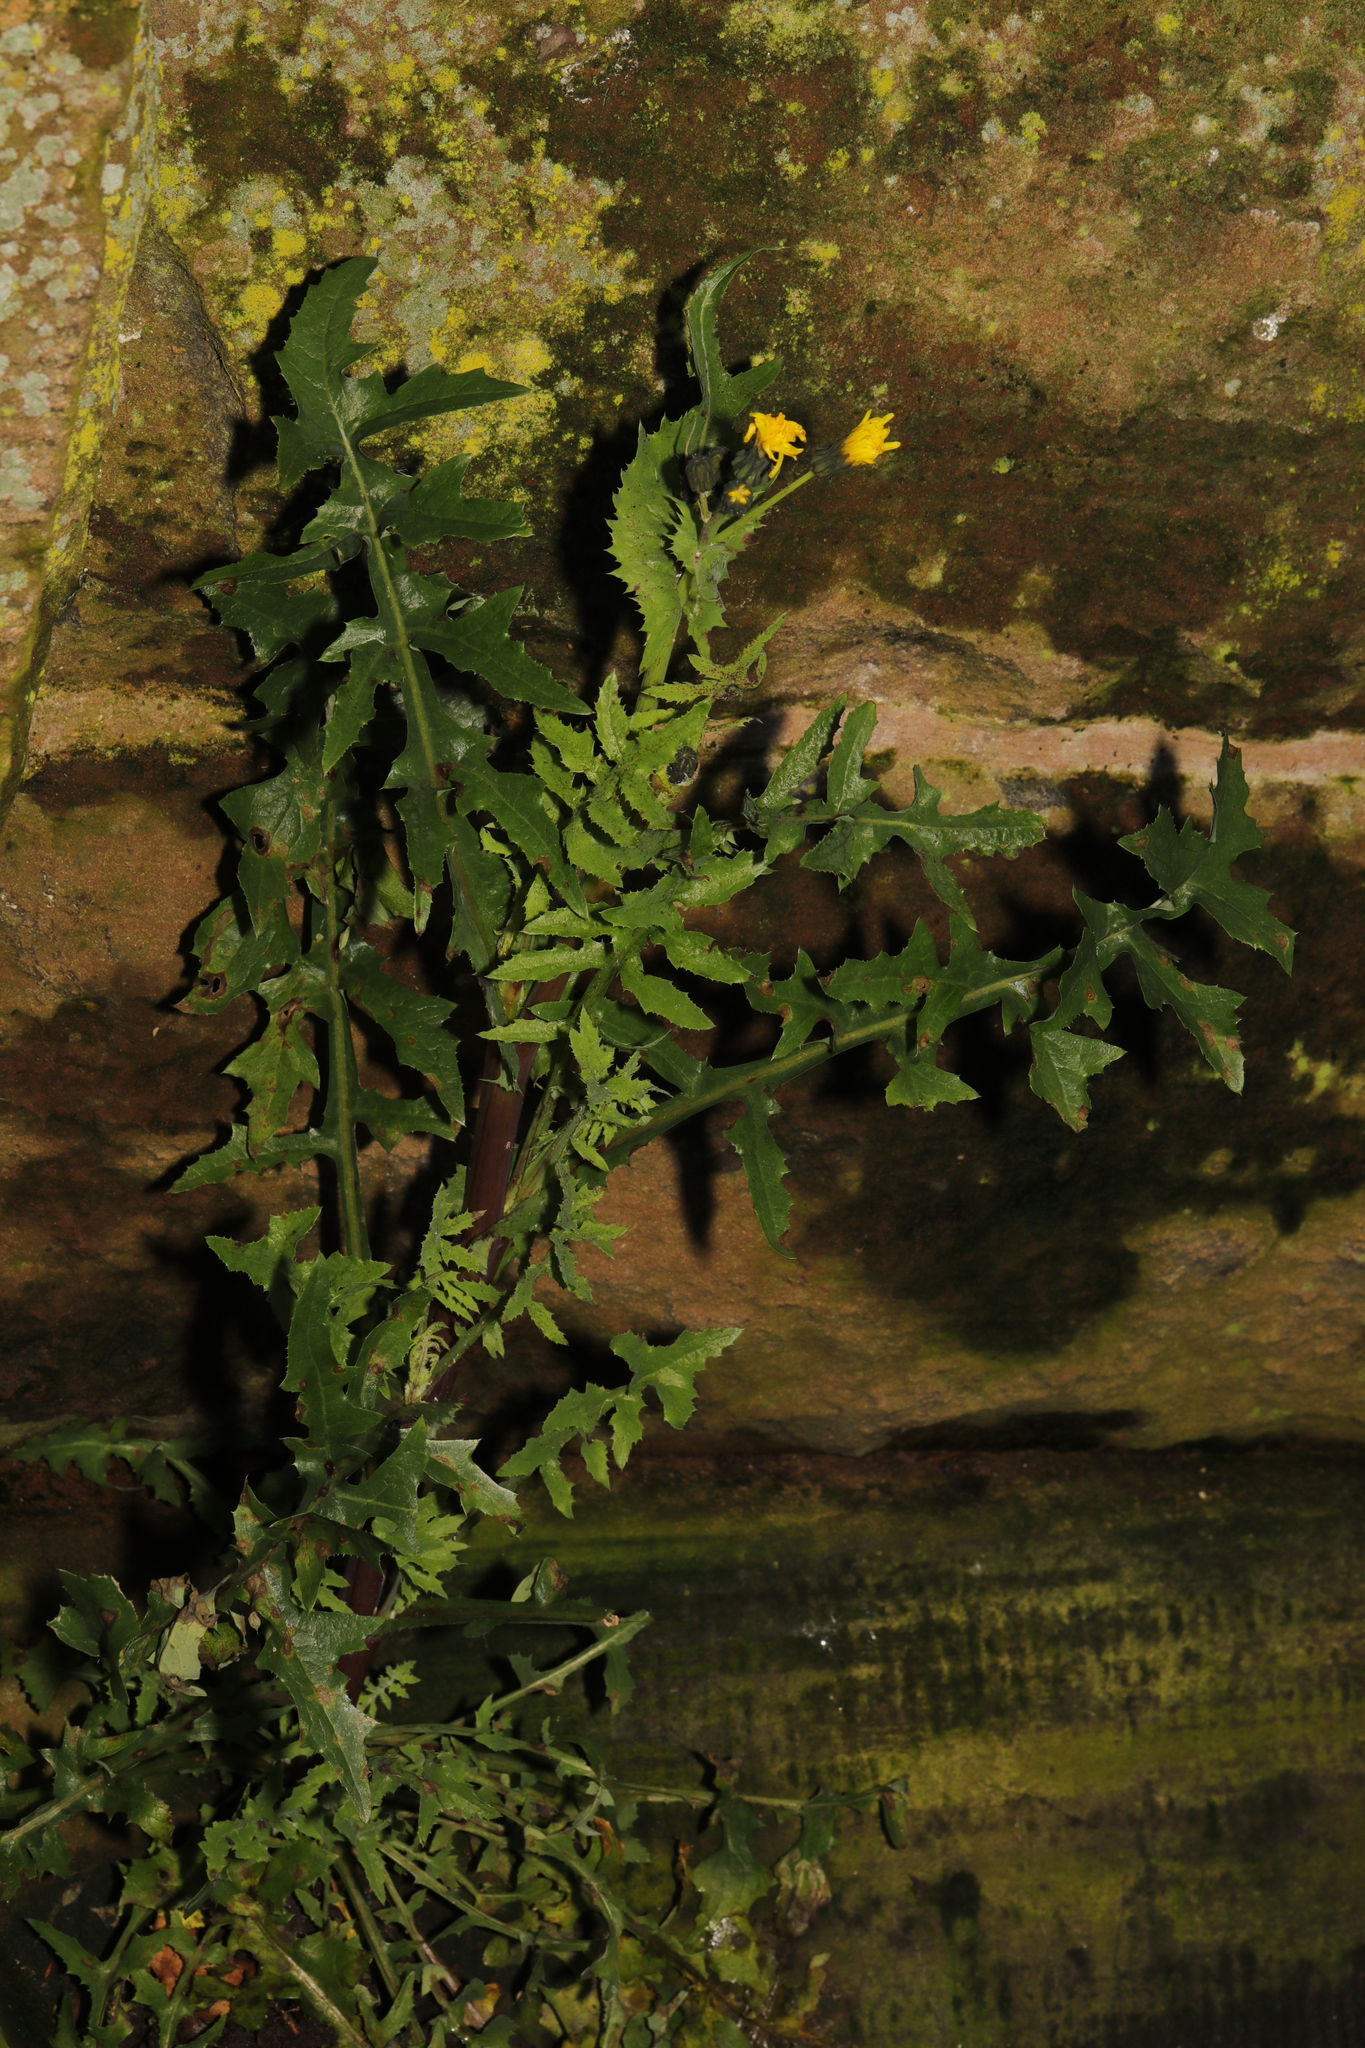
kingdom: Plantae
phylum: Tracheophyta
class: Magnoliopsida
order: Asterales
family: Asteraceae
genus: Sonchus
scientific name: Sonchus oleraceus
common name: Common sowthistle
